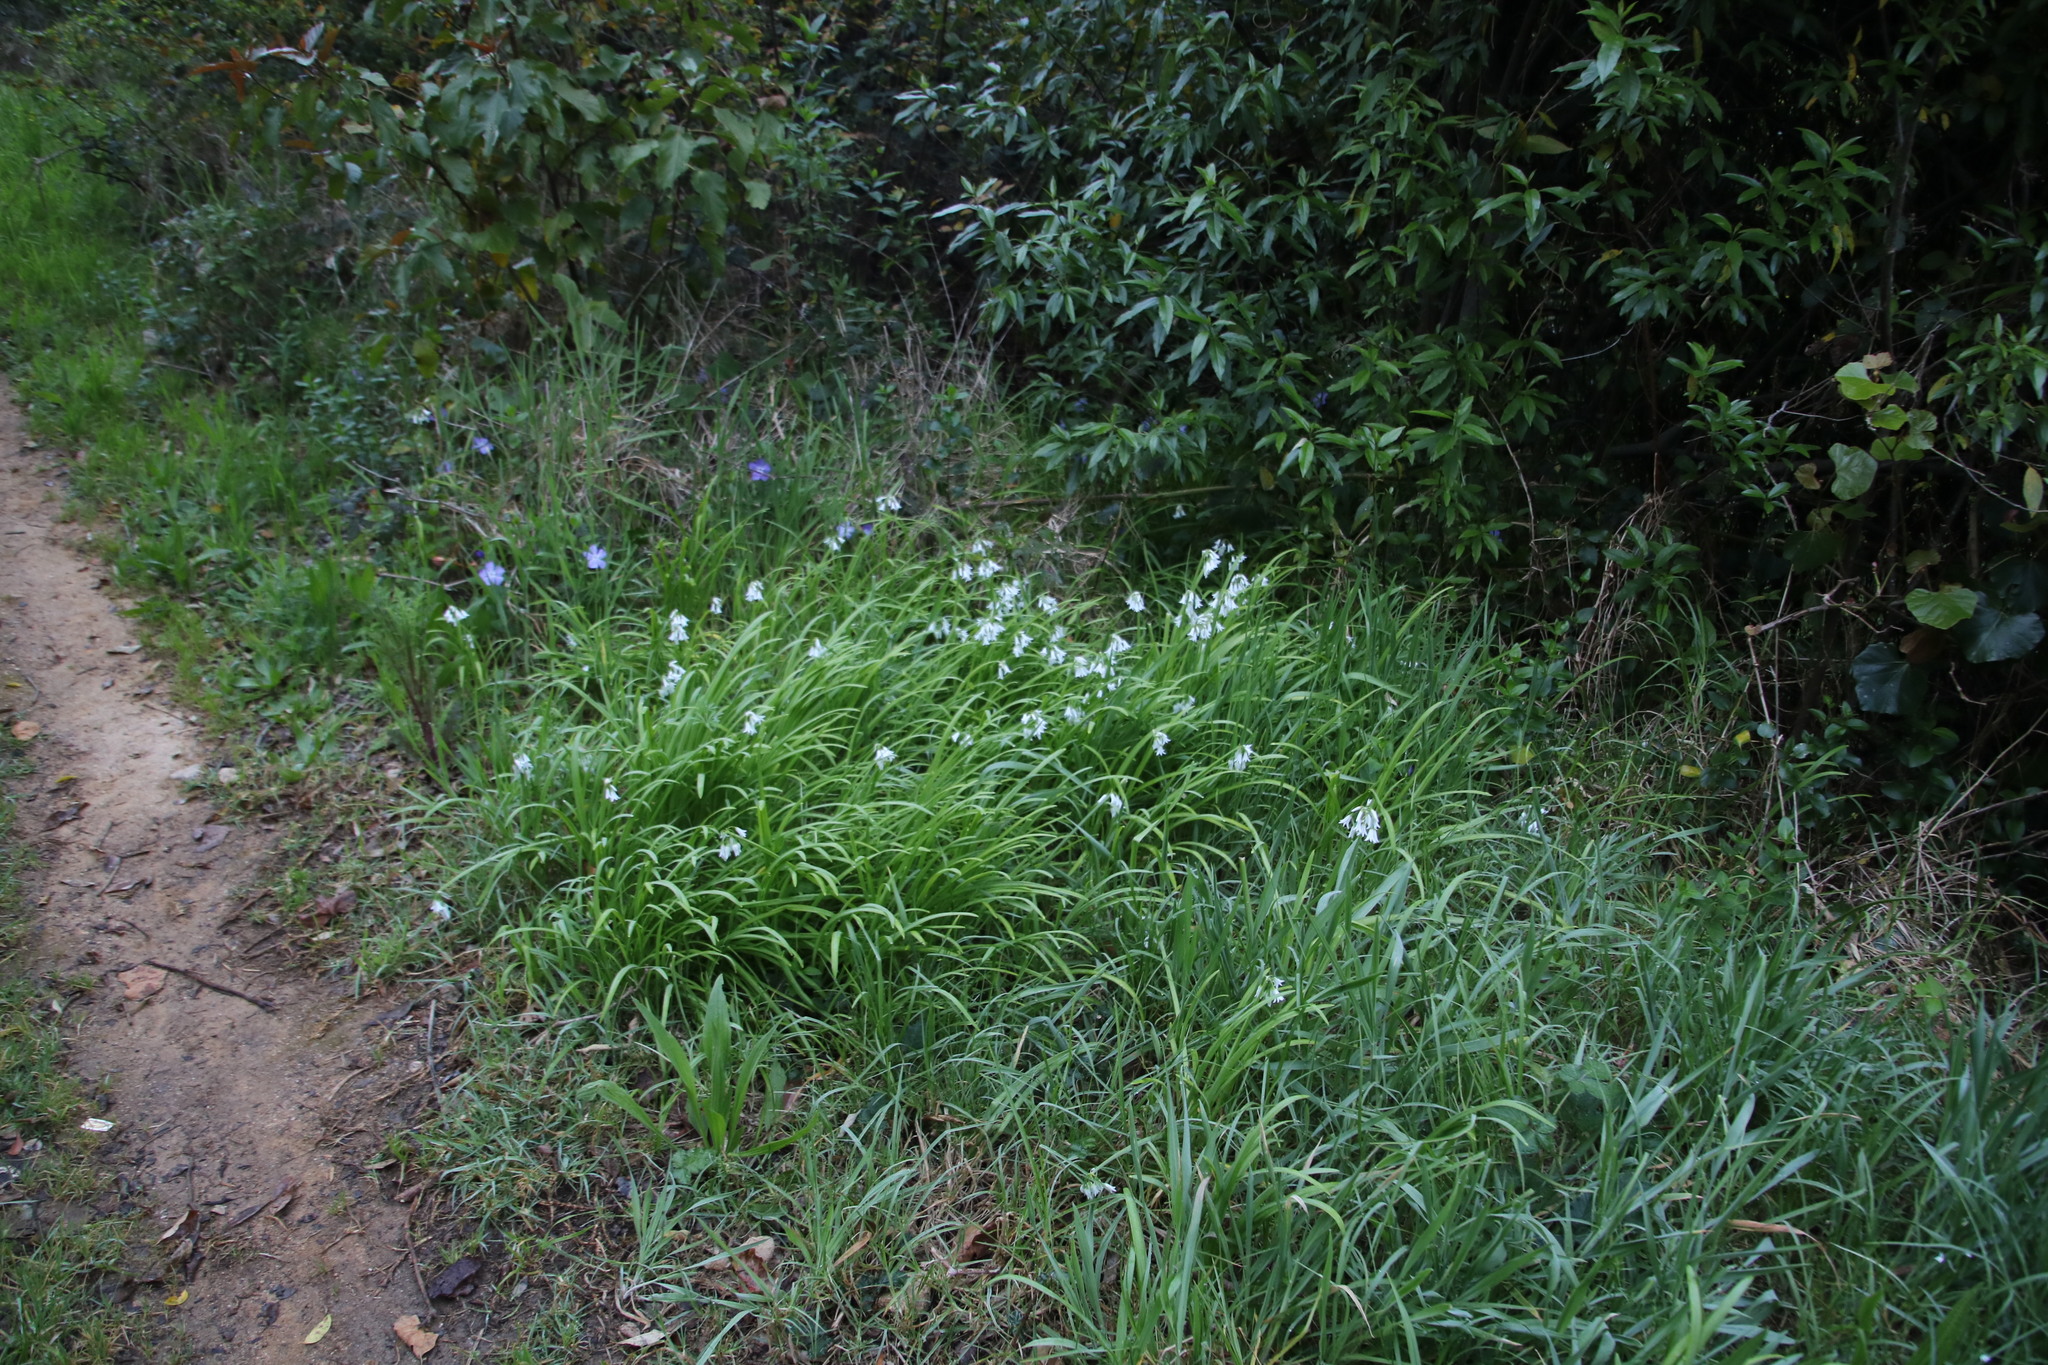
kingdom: Plantae
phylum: Tracheophyta
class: Liliopsida
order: Asparagales
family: Amaryllidaceae
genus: Allium
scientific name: Allium triquetrum
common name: Three-cornered garlic
